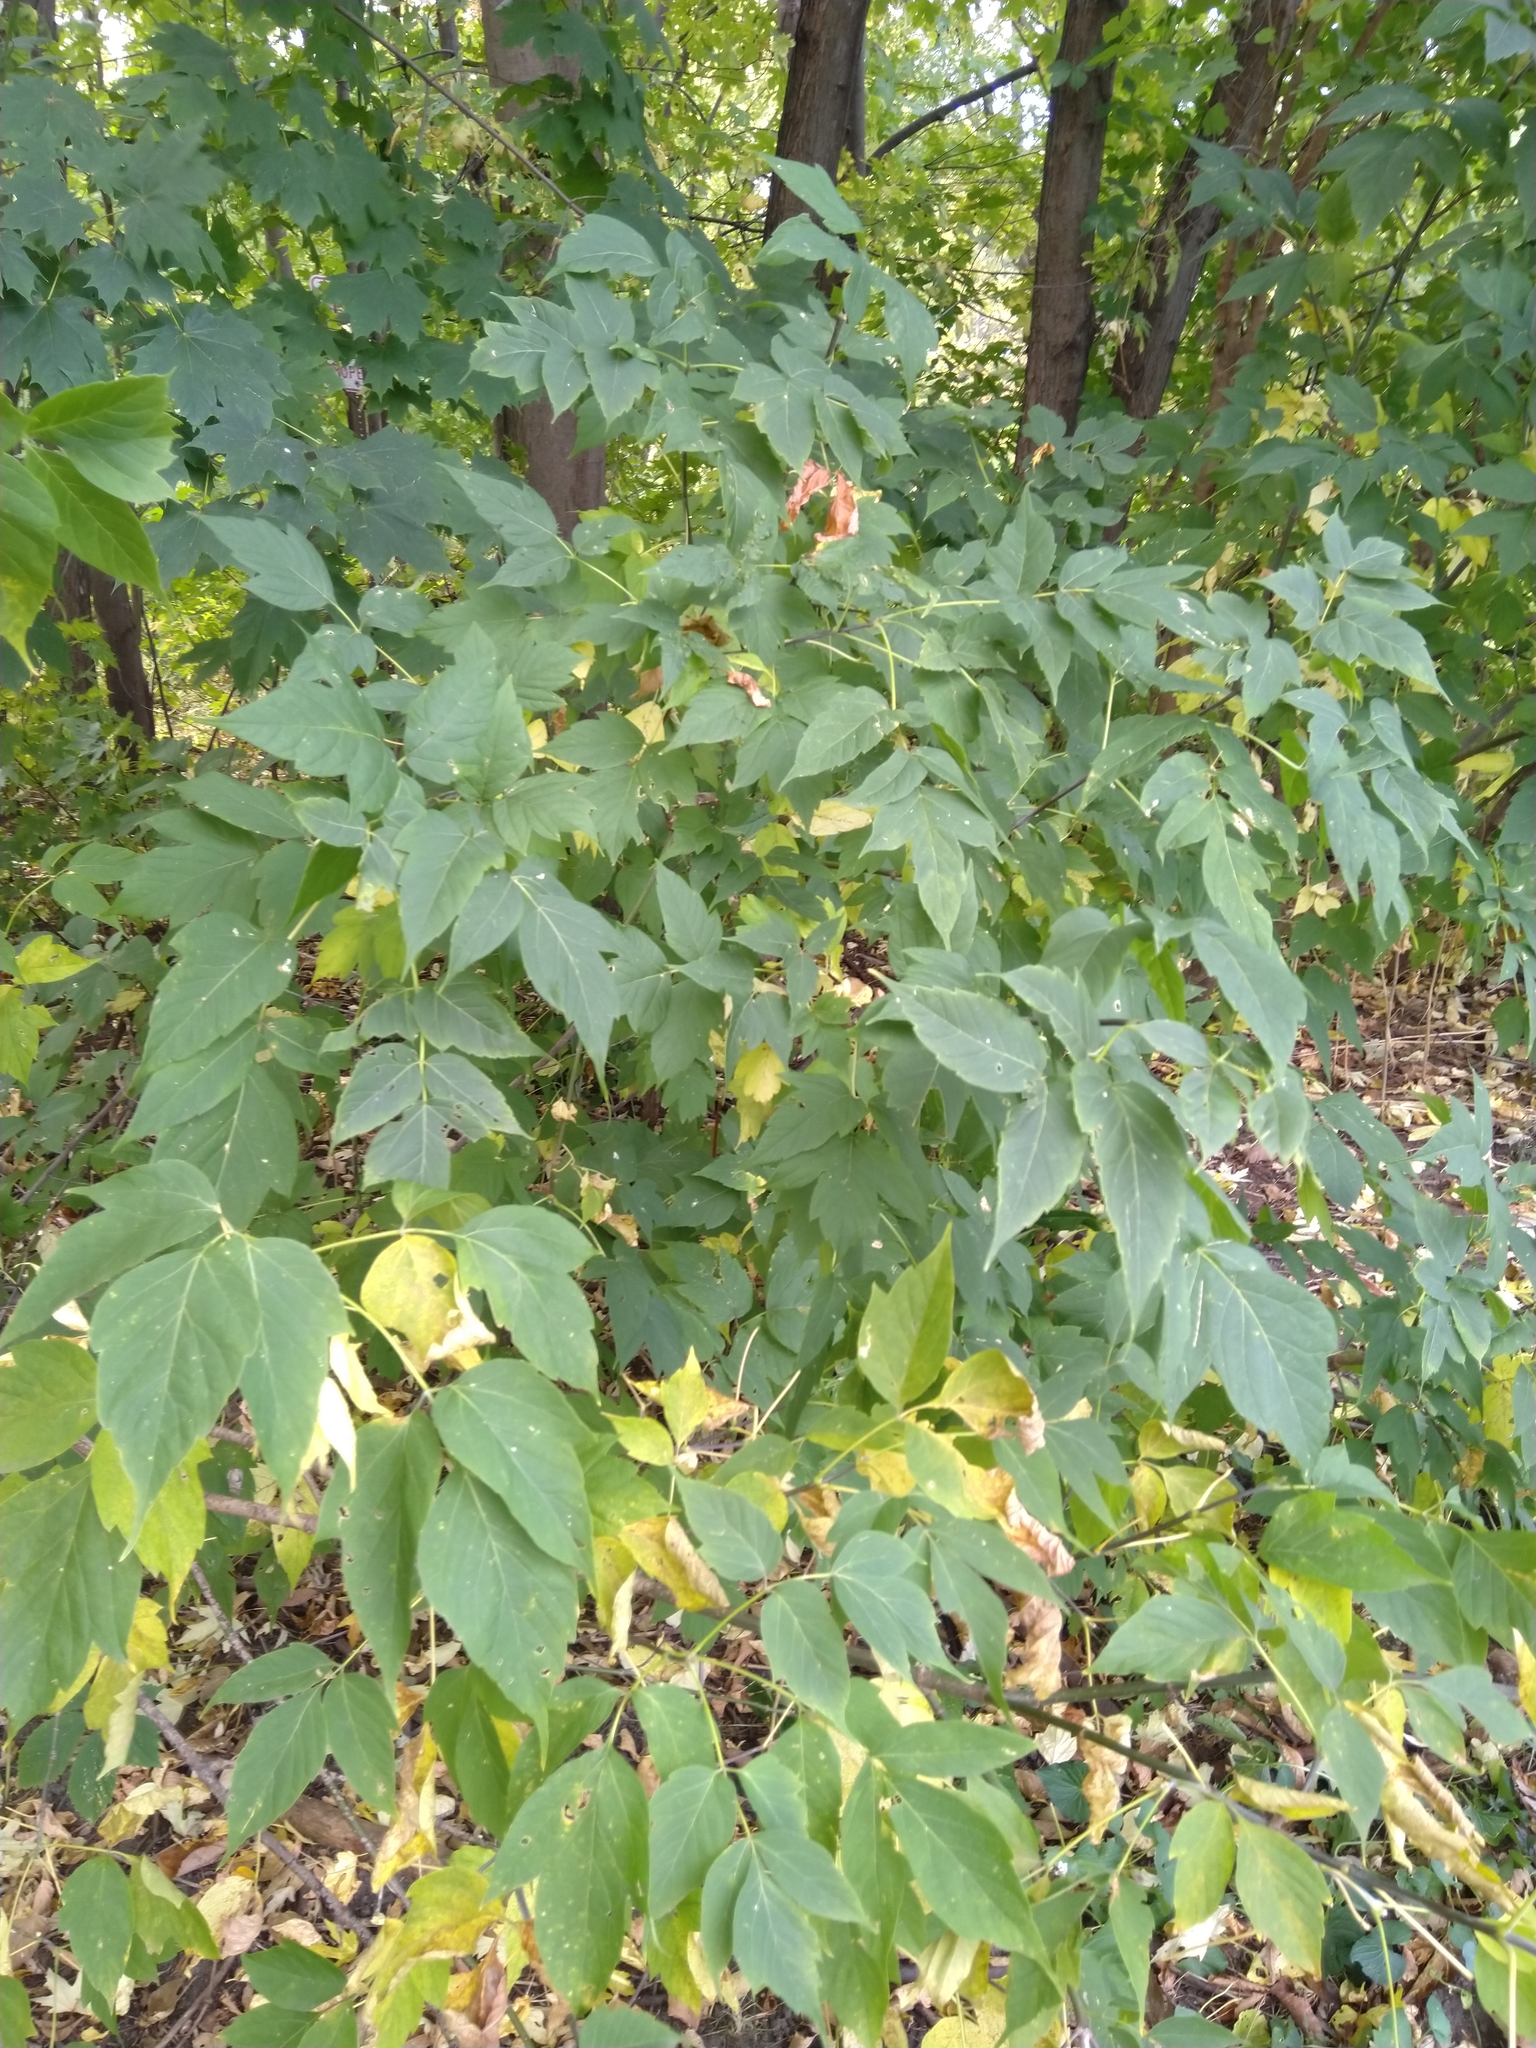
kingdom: Plantae
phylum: Tracheophyta
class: Magnoliopsida
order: Sapindales
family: Sapindaceae
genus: Acer
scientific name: Acer negundo
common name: Ashleaf maple
